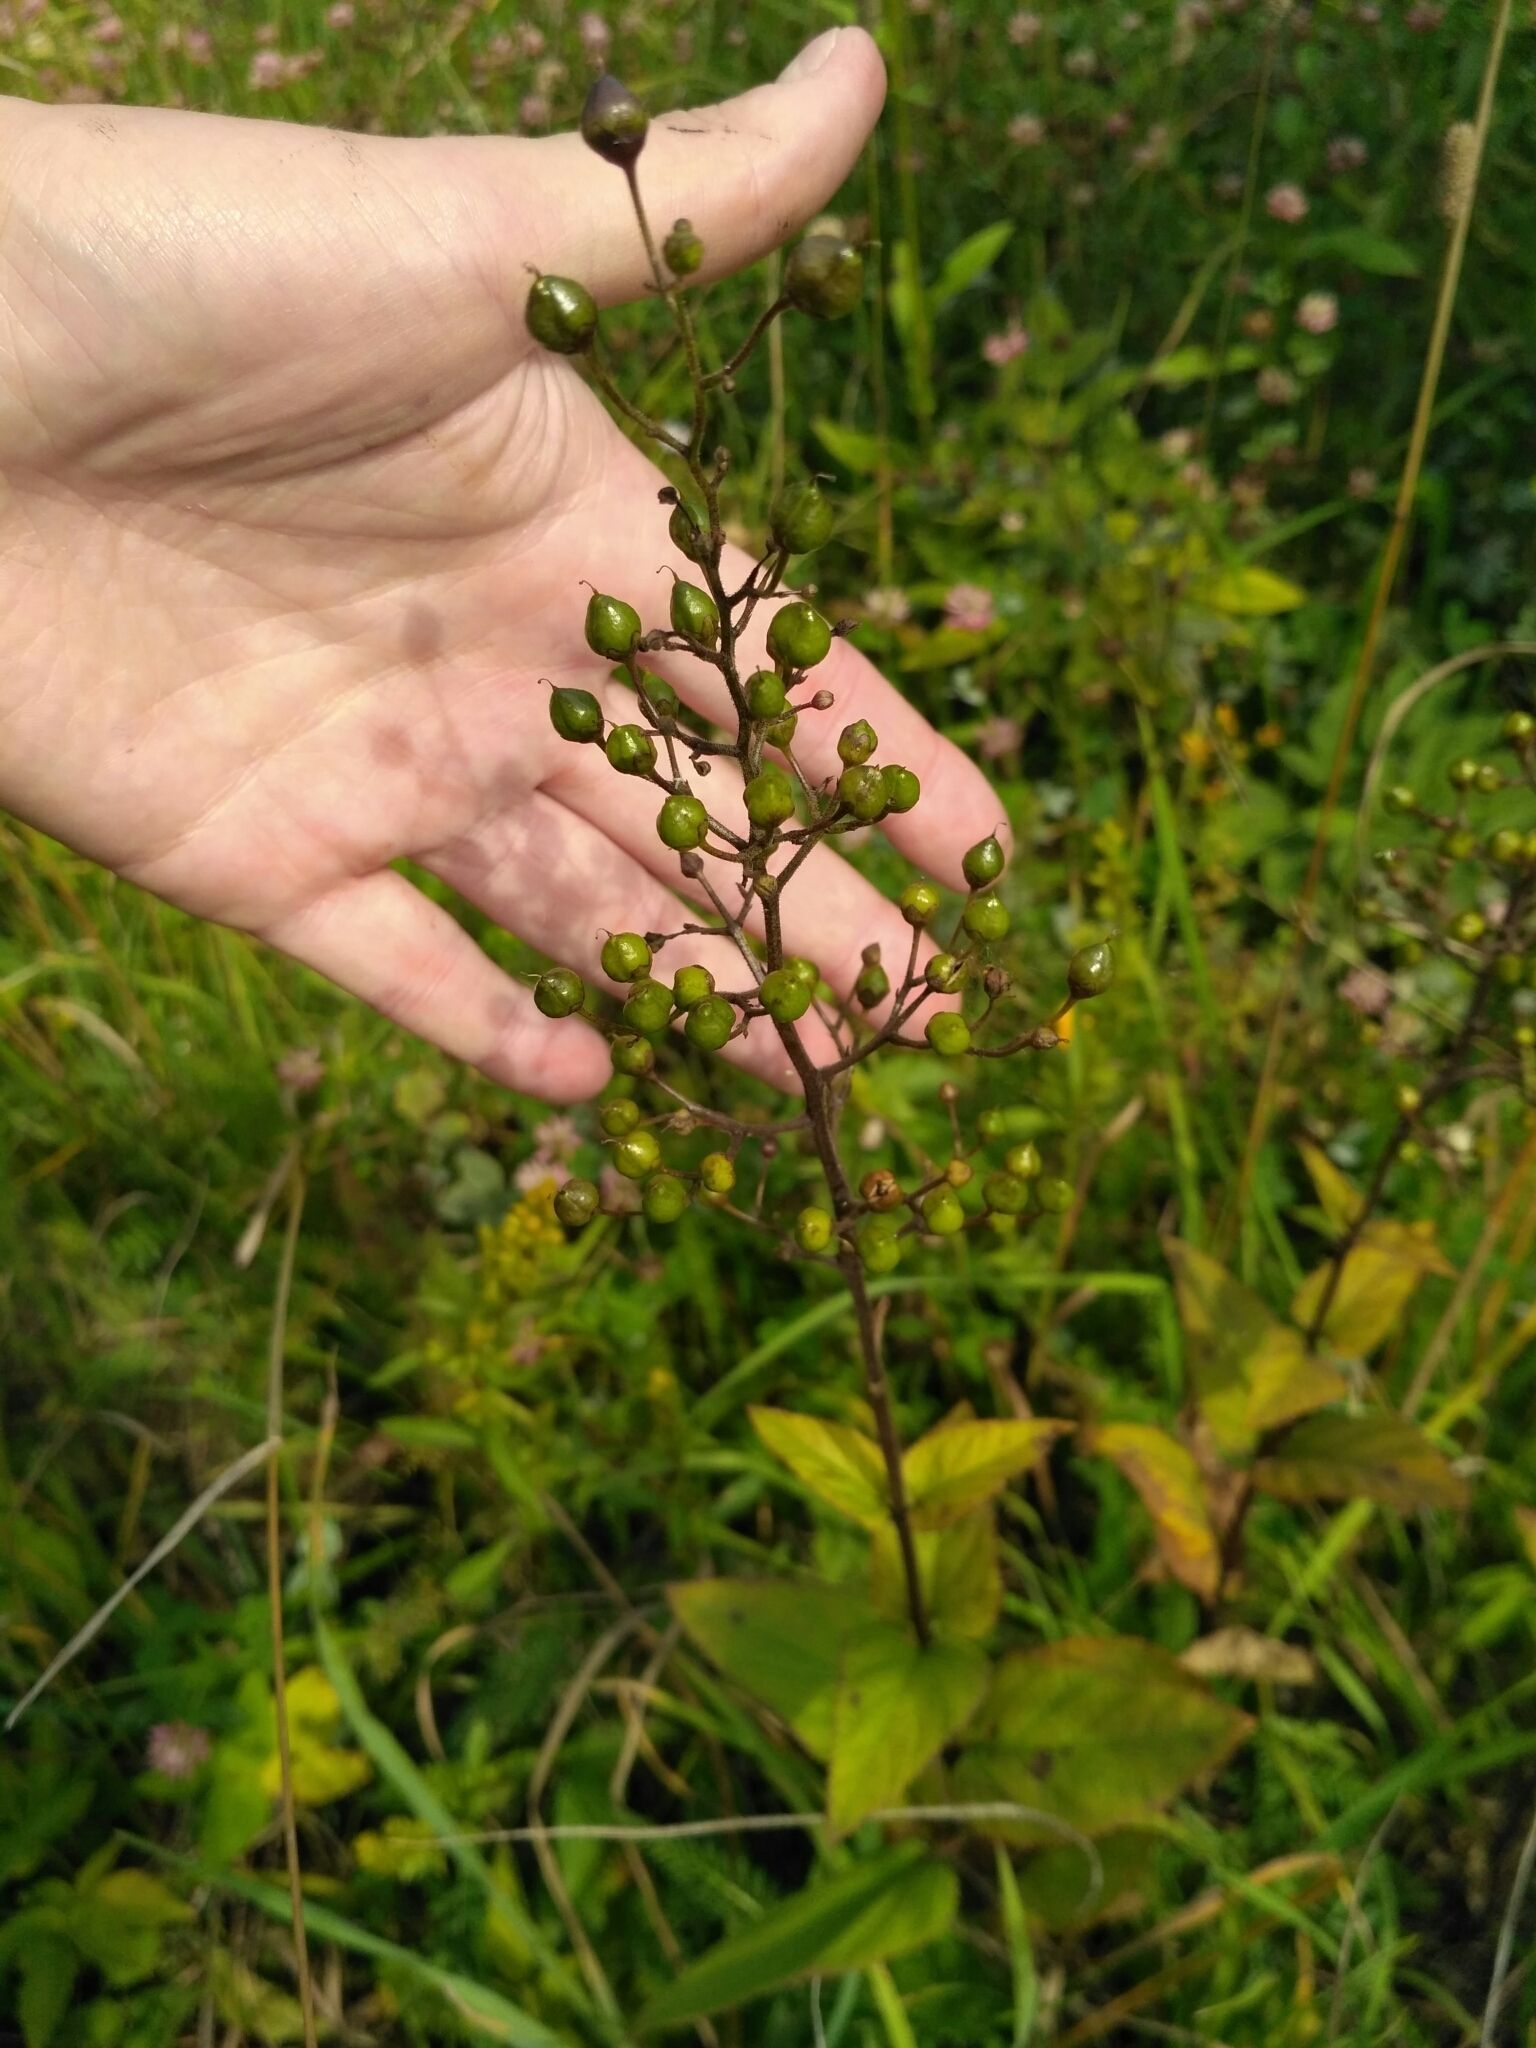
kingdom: Plantae
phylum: Tracheophyta
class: Magnoliopsida
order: Lamiales
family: Scrophulariaceae
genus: Scrophularia
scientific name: Scrophularia nodosa
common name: Common figwort
